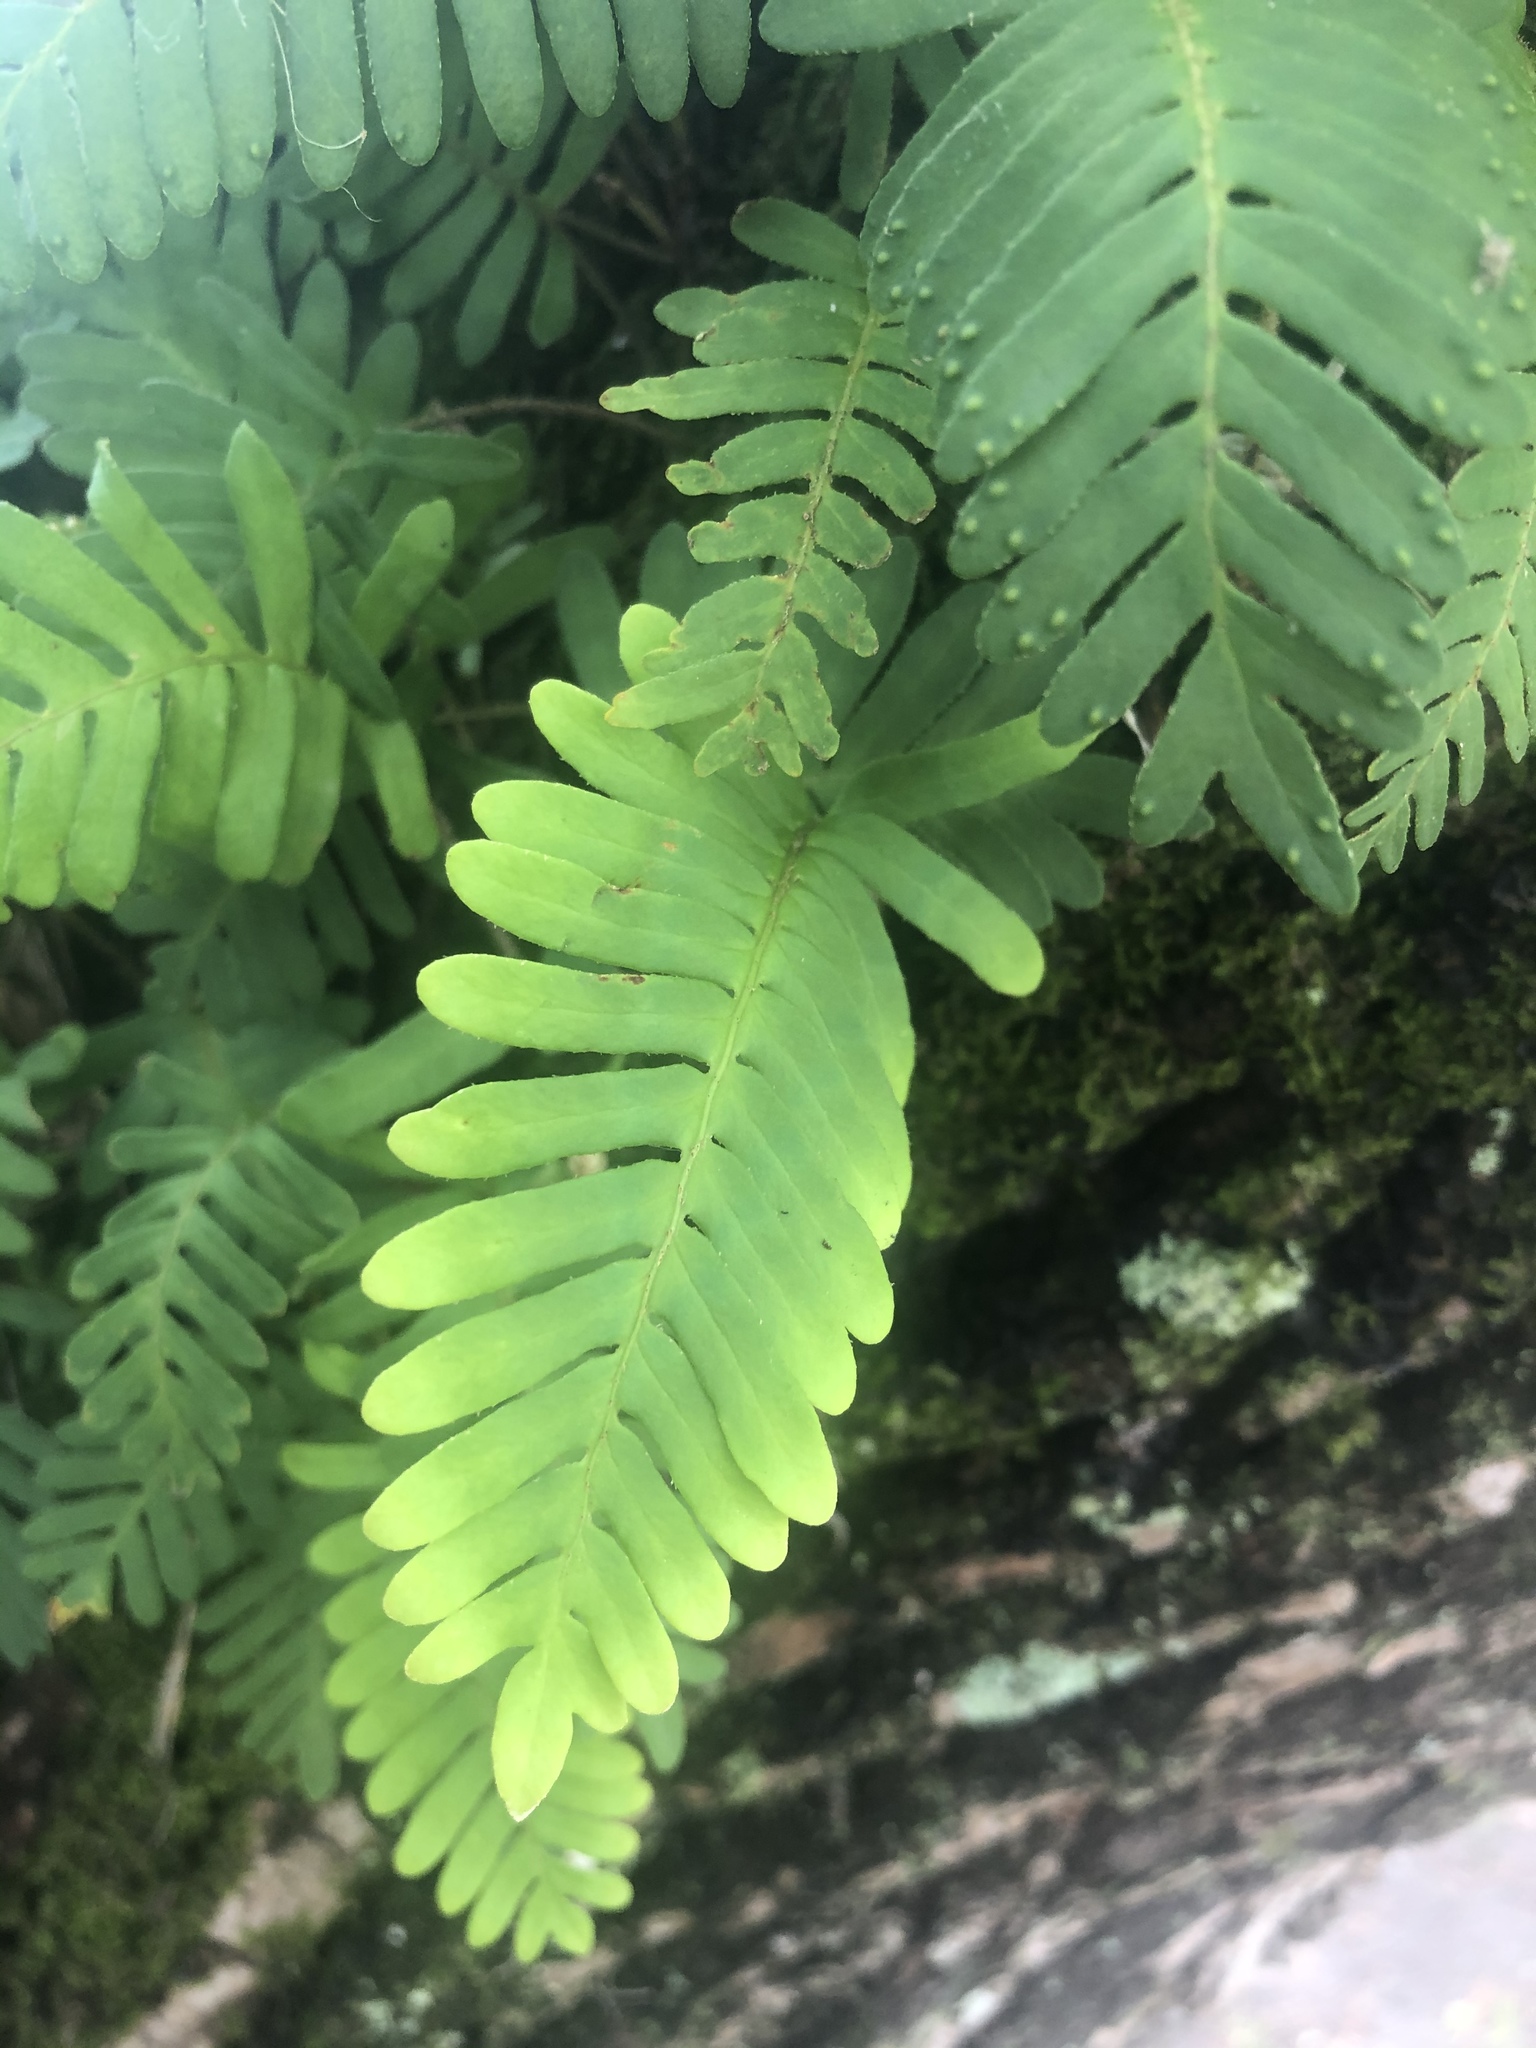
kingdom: Plantae
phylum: Tracheophyta
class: Polypodiopsida
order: Polypodiales
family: Polypodiaceae
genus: Pleopeltis
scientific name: Pleopeltis michauxiana
